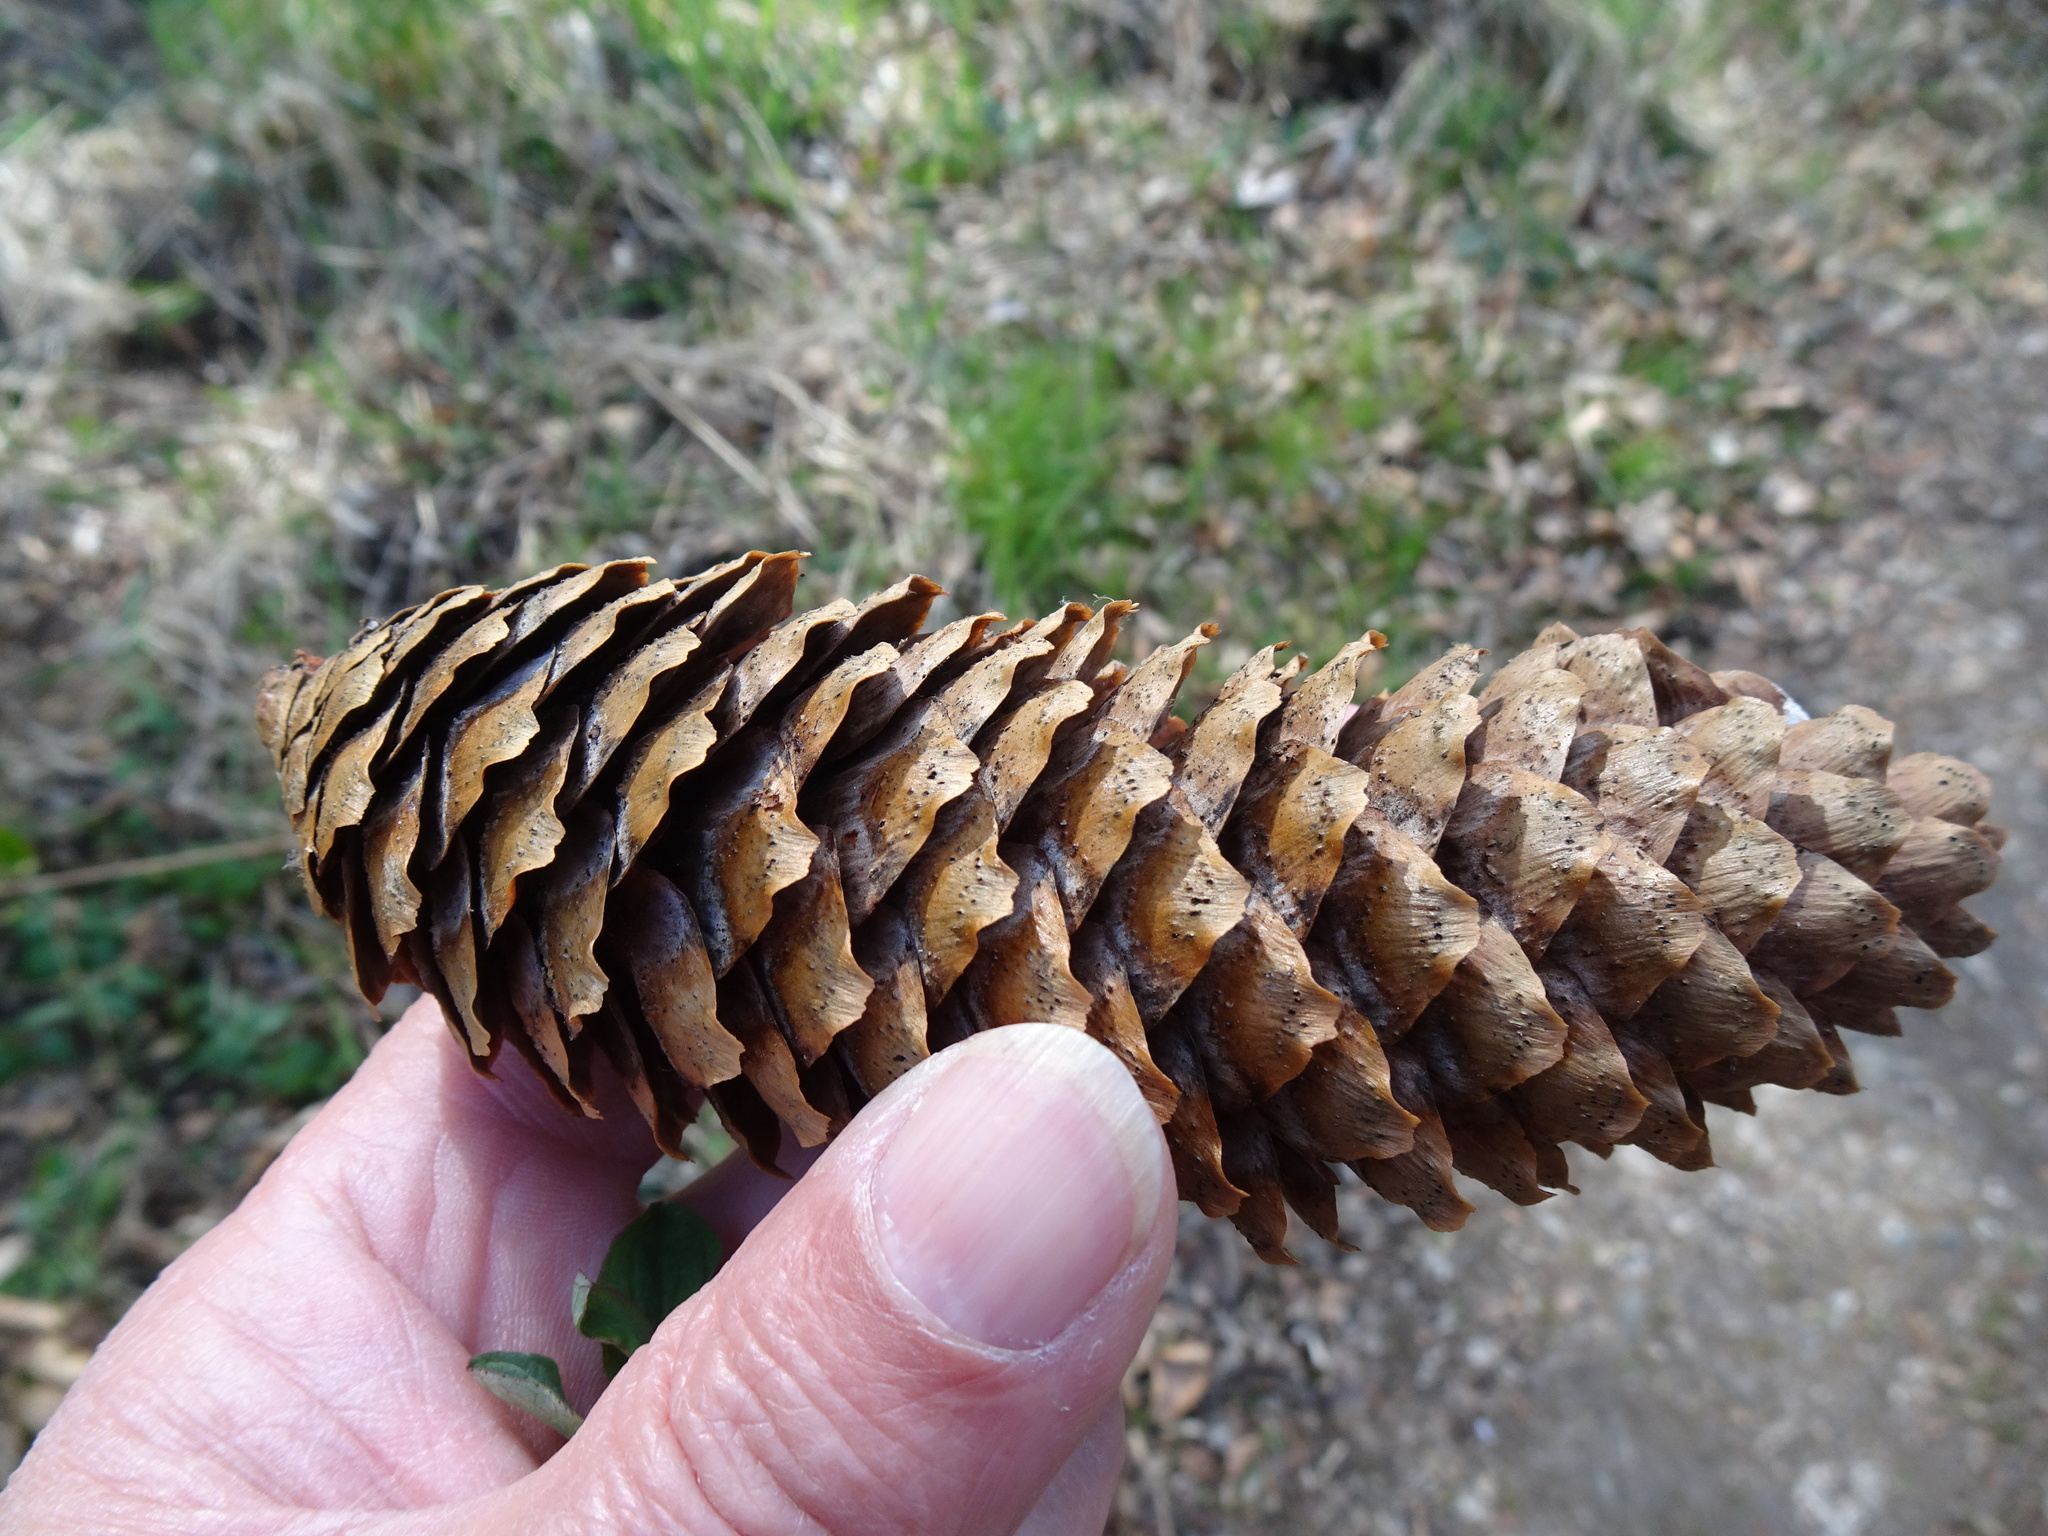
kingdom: Plantae
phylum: Tracheophyta
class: Pinopsida
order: Pinales
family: Pinaceae
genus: Picea
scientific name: Picea abies
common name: Norway spruce
